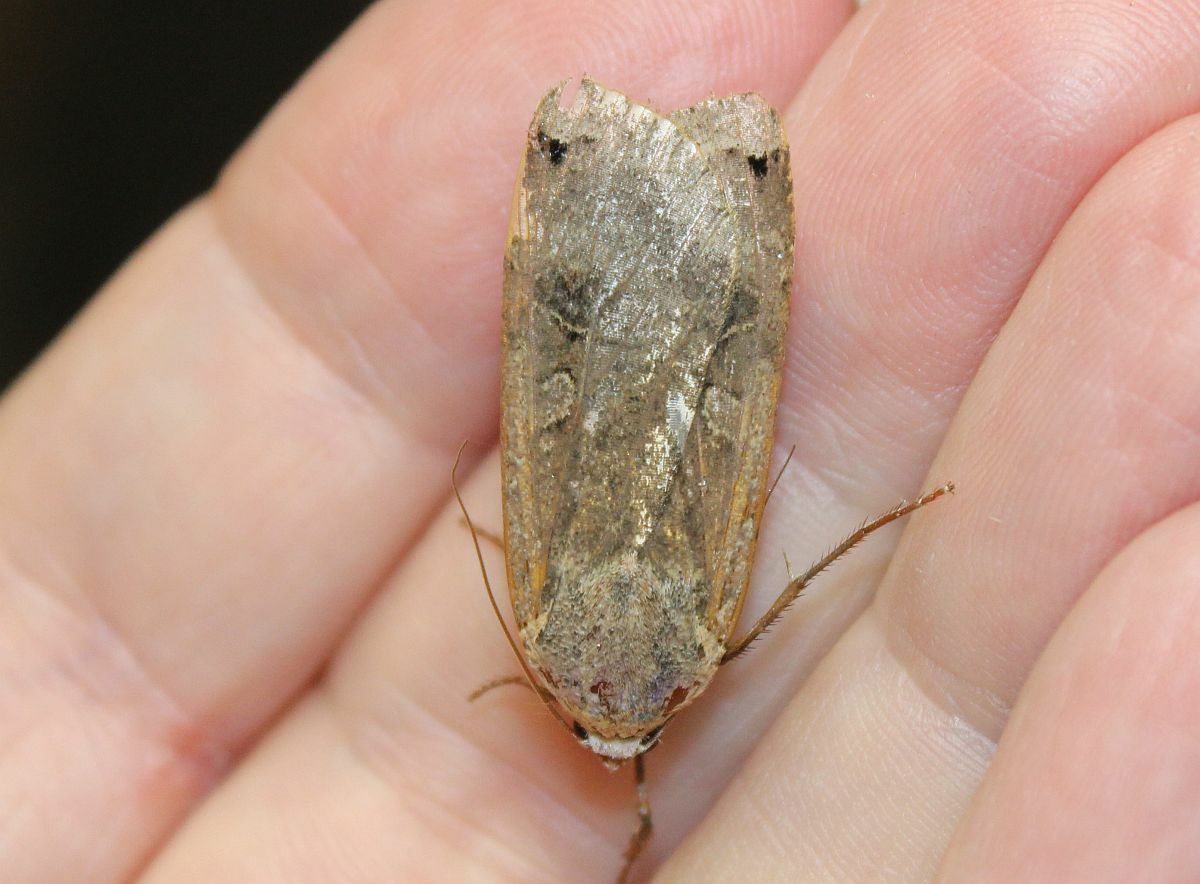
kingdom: Animalia
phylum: Arthropoda
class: Insecta
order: Lepidoptera
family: Noctuidae
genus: Noctua
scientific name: Noctua pronuba
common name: Large yellow underwing
